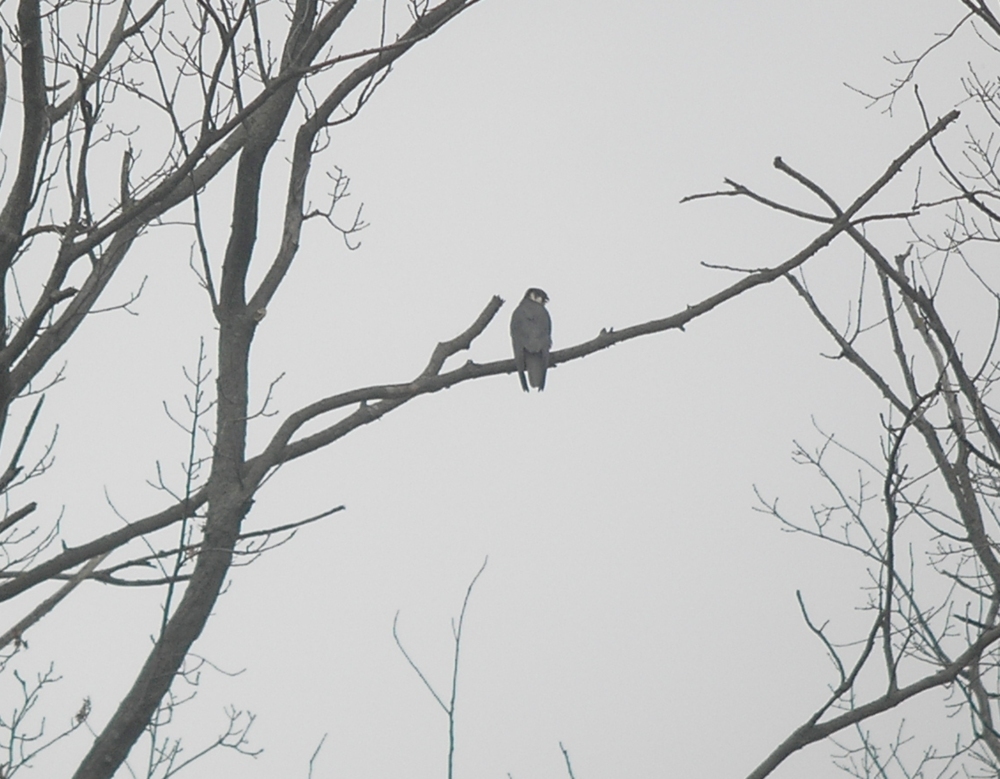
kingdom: Animalia
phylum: Chordata
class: Aves
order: Falconiformes
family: Falconidae
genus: Falco
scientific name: Falco subbuteo
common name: Eurasian hobby
